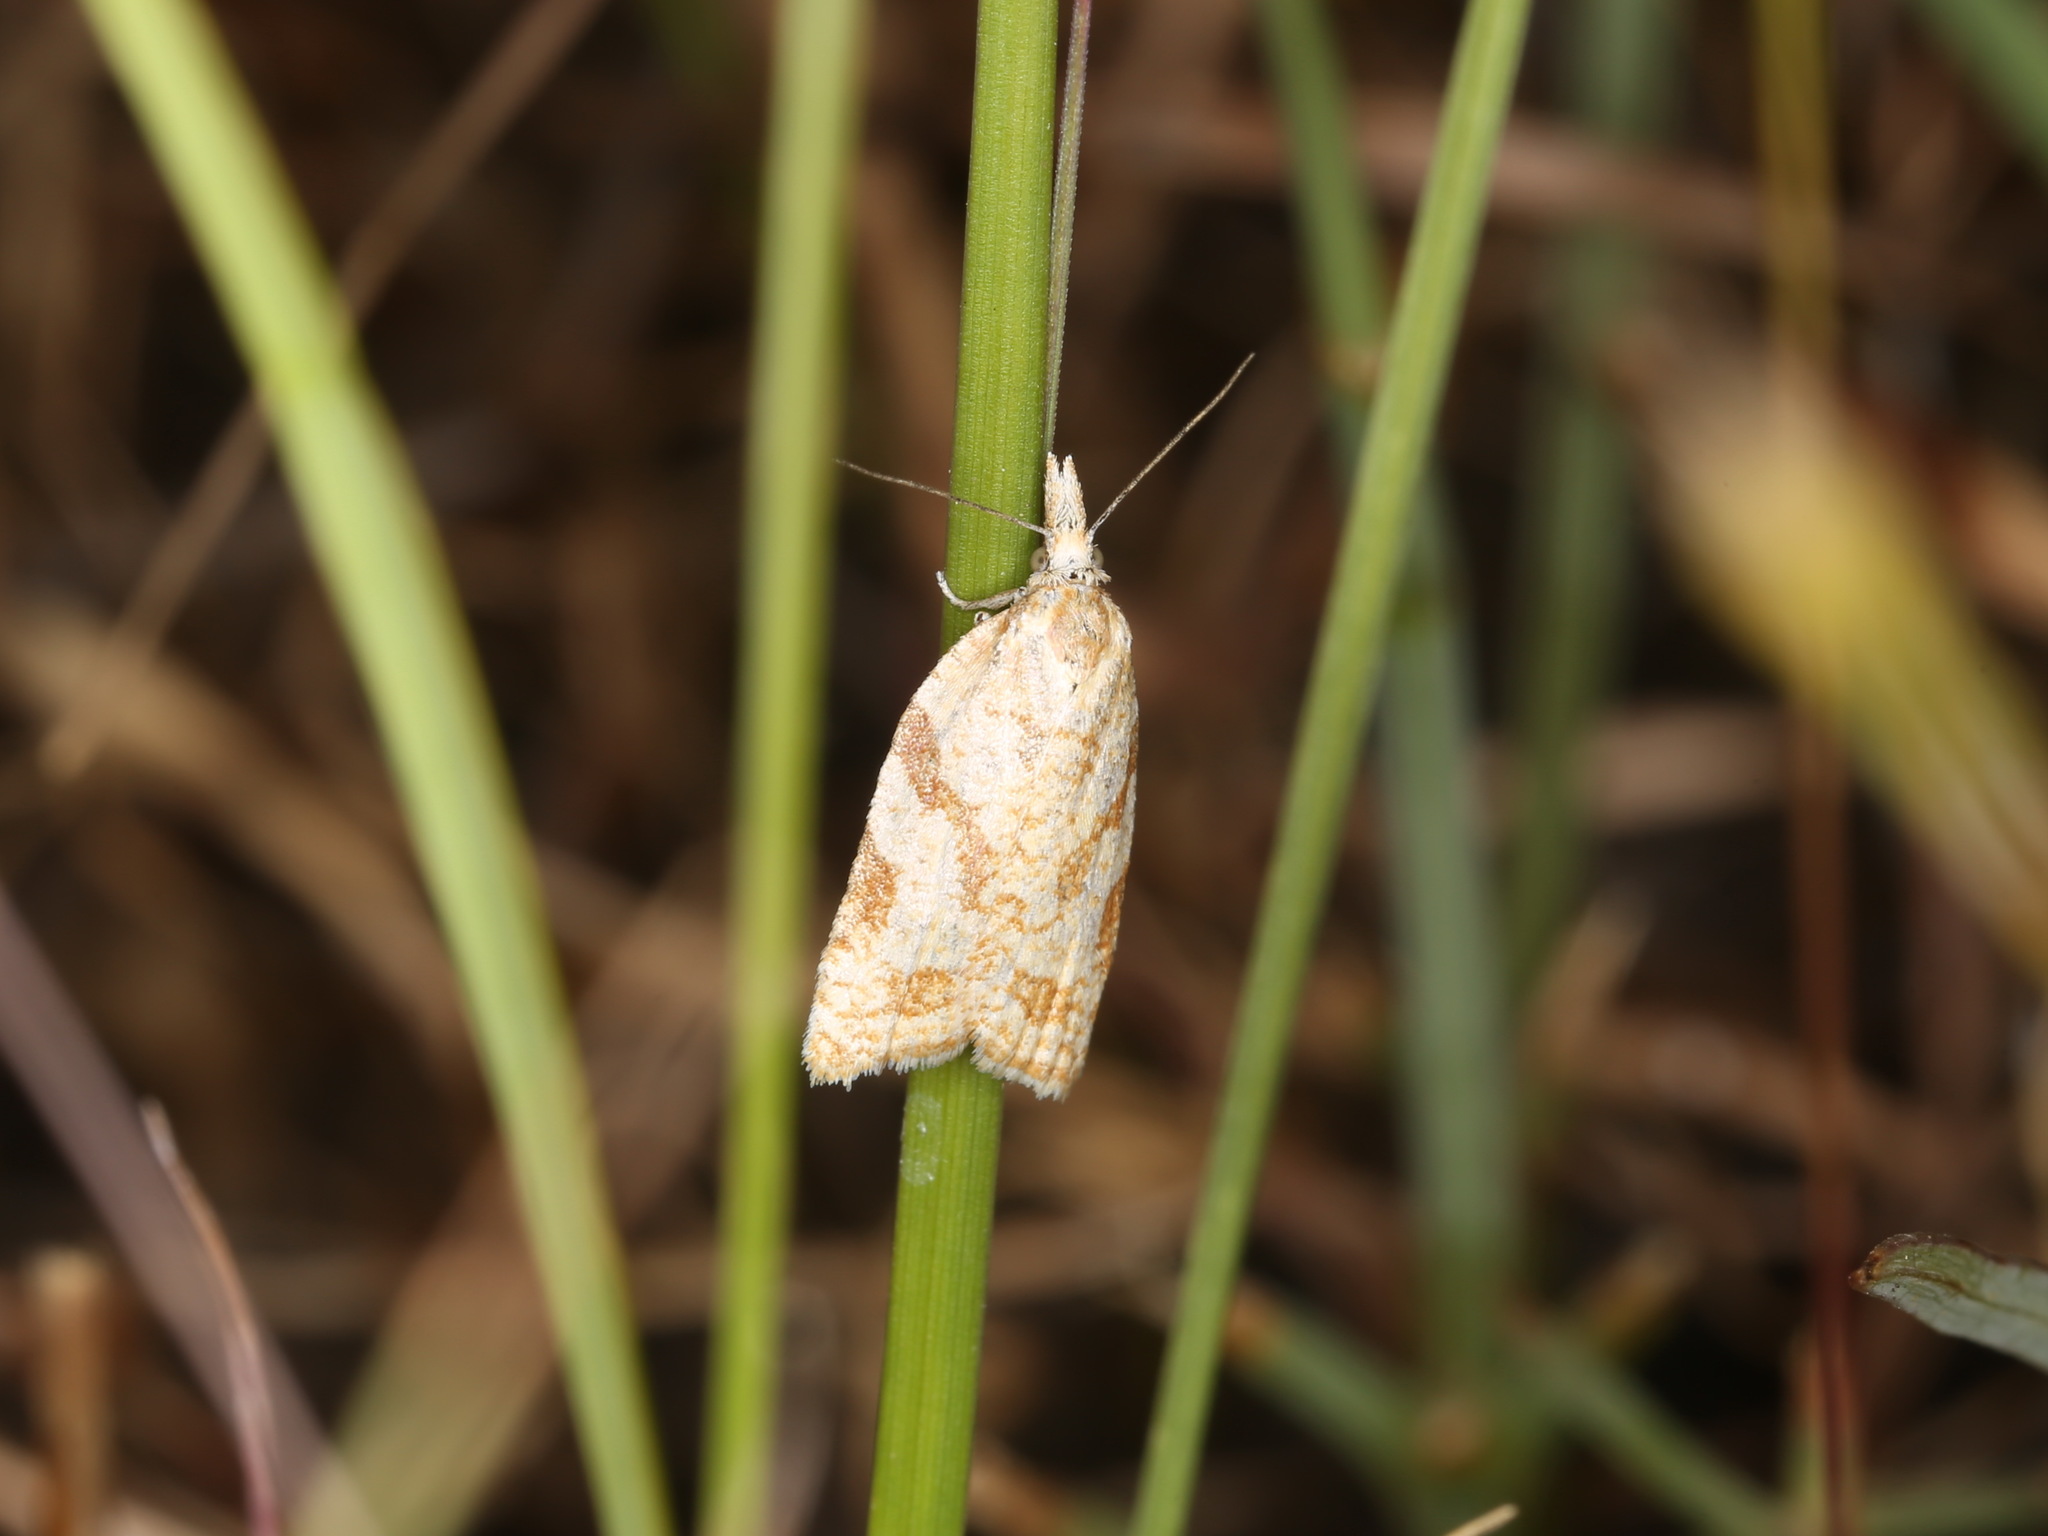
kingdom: Animalia
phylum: Arthropoda
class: Insecta
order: Lepidoptera
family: Tortricidae
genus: Sparganothis
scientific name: Sparganothis senecionana
